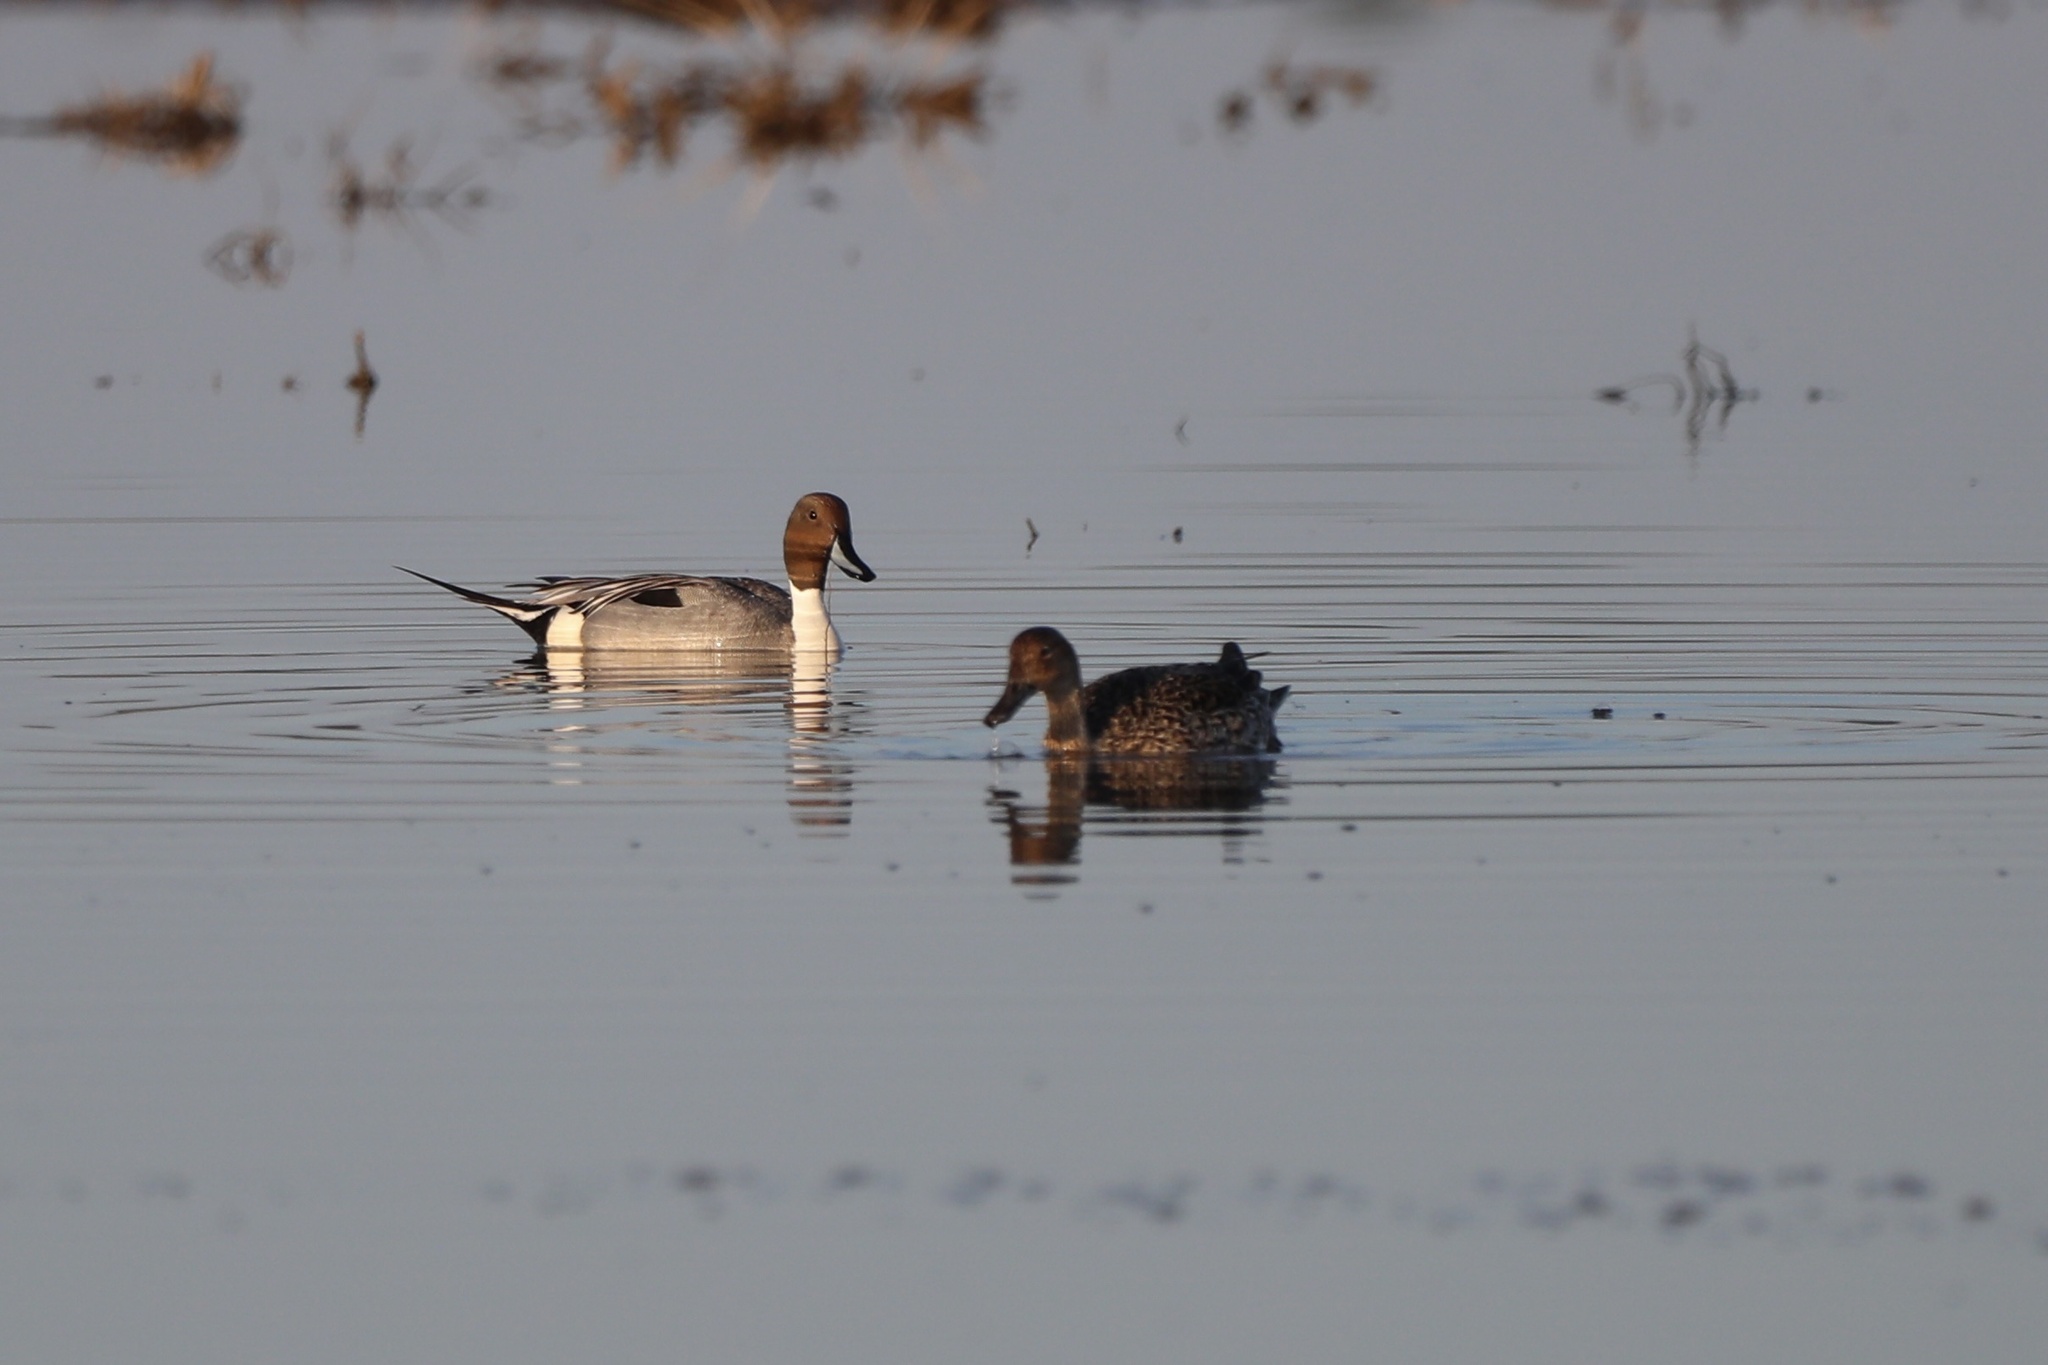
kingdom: Animalia
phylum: Chordata
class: Aves
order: Anseriformes
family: Anatidae
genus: Anas
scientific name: Anas acuta
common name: Northern pintail
